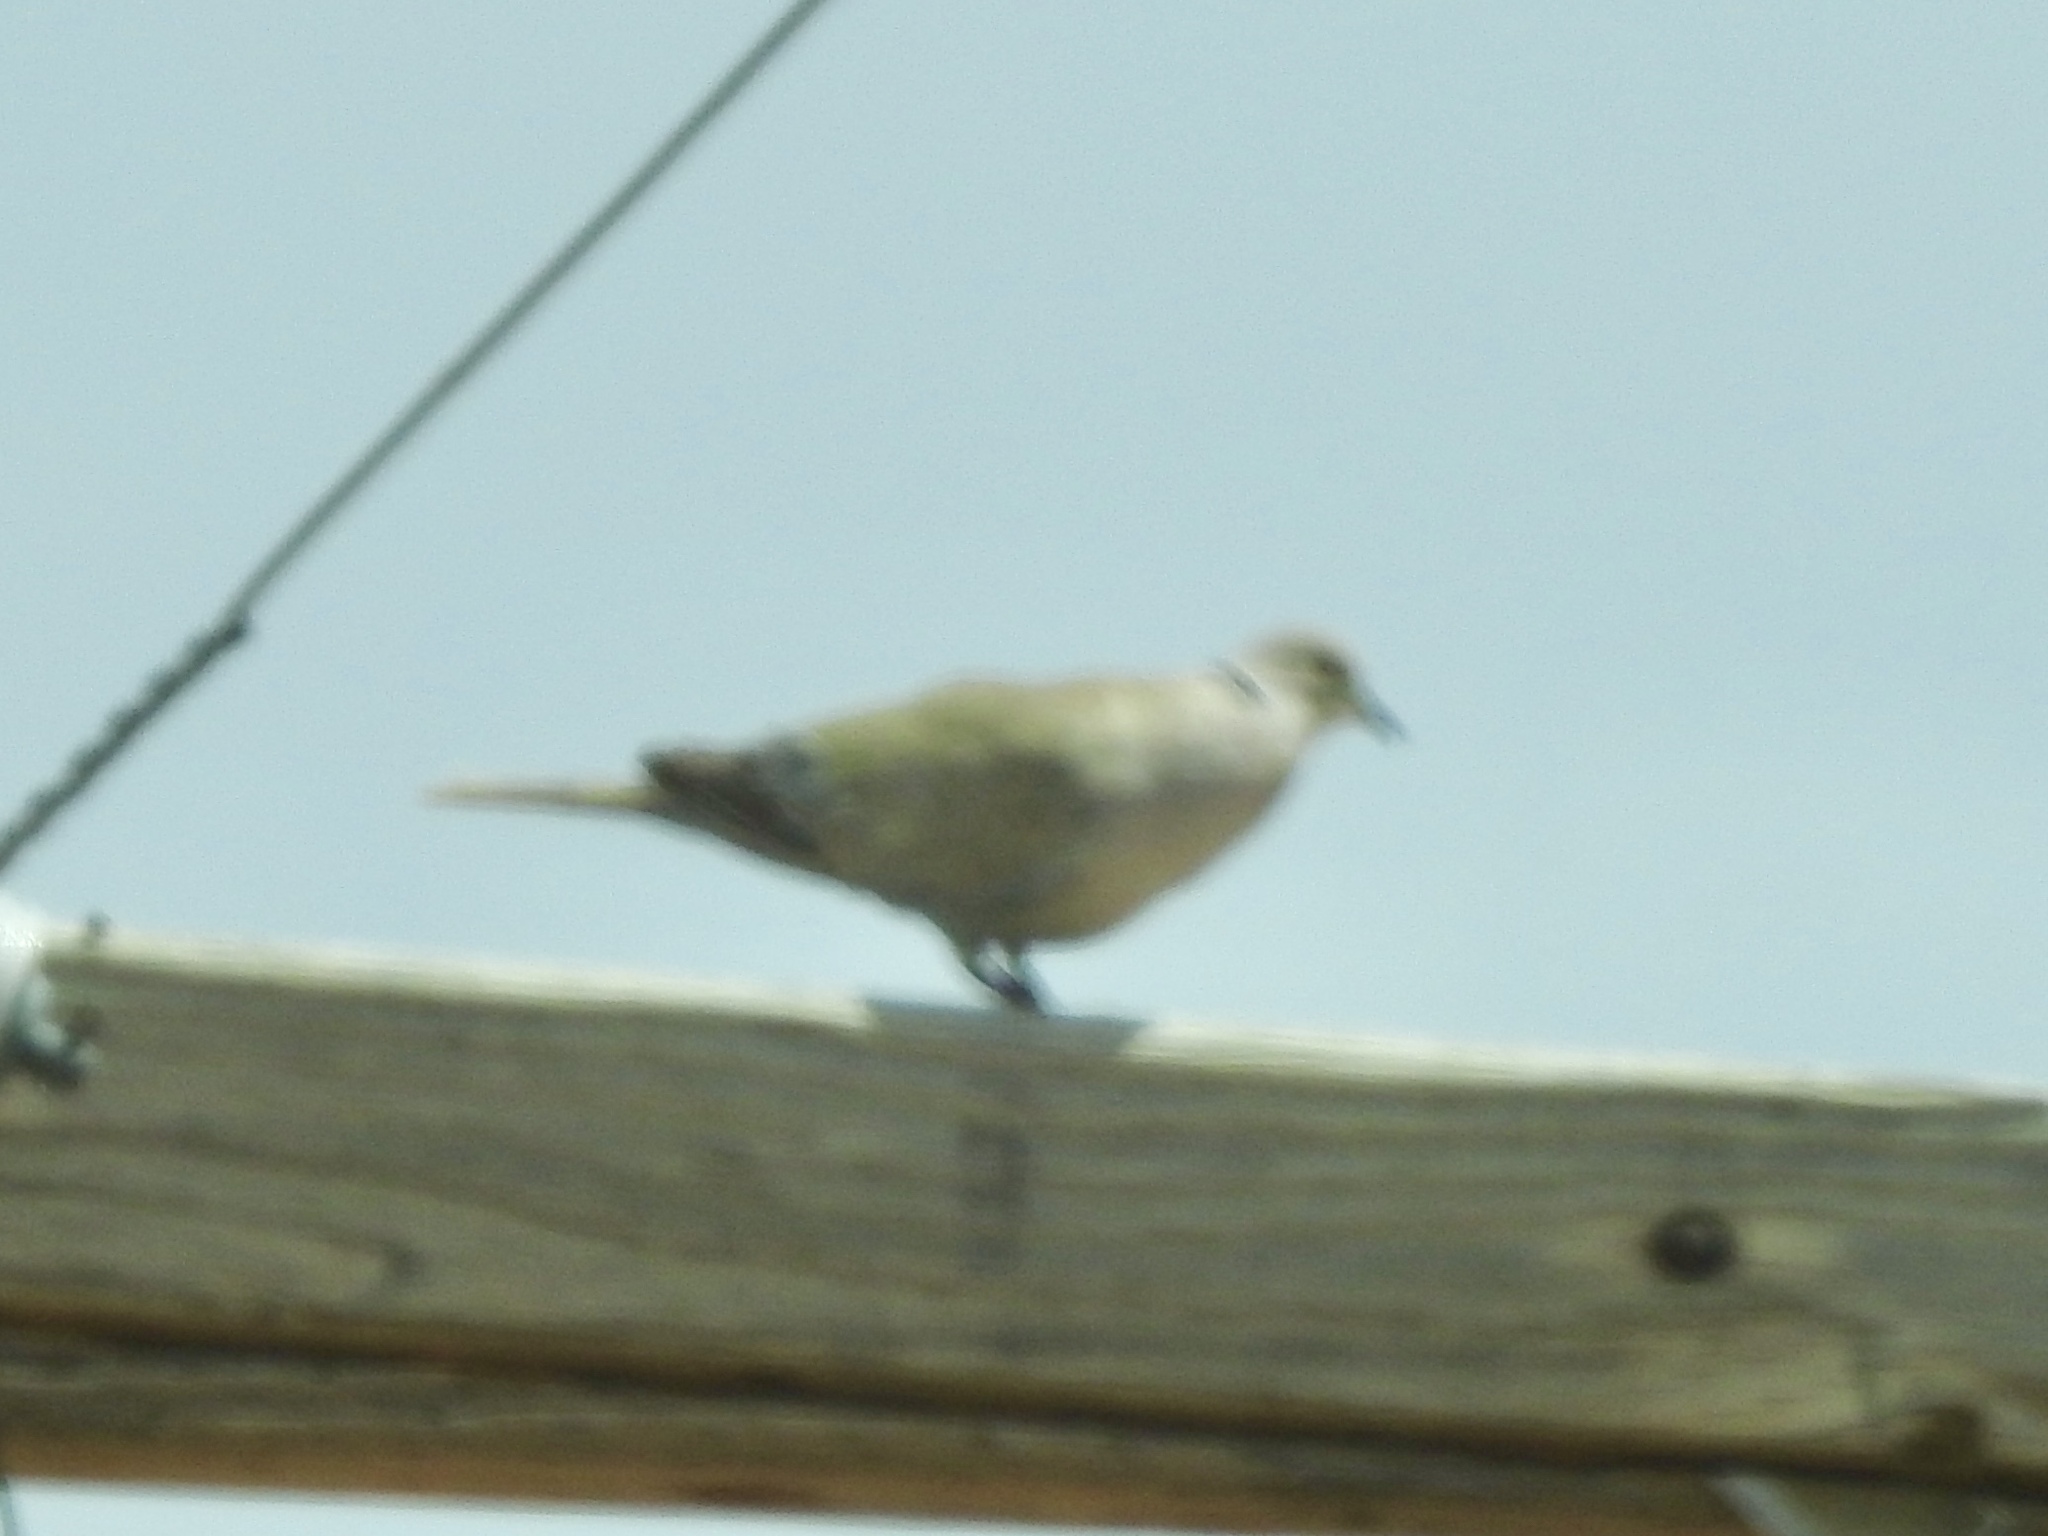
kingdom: Animalia
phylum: Chordata
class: Aves
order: Columbiformes
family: Columbidae
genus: Streptopelia
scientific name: Streptopelia decaocto
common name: Eurasian collared dove
